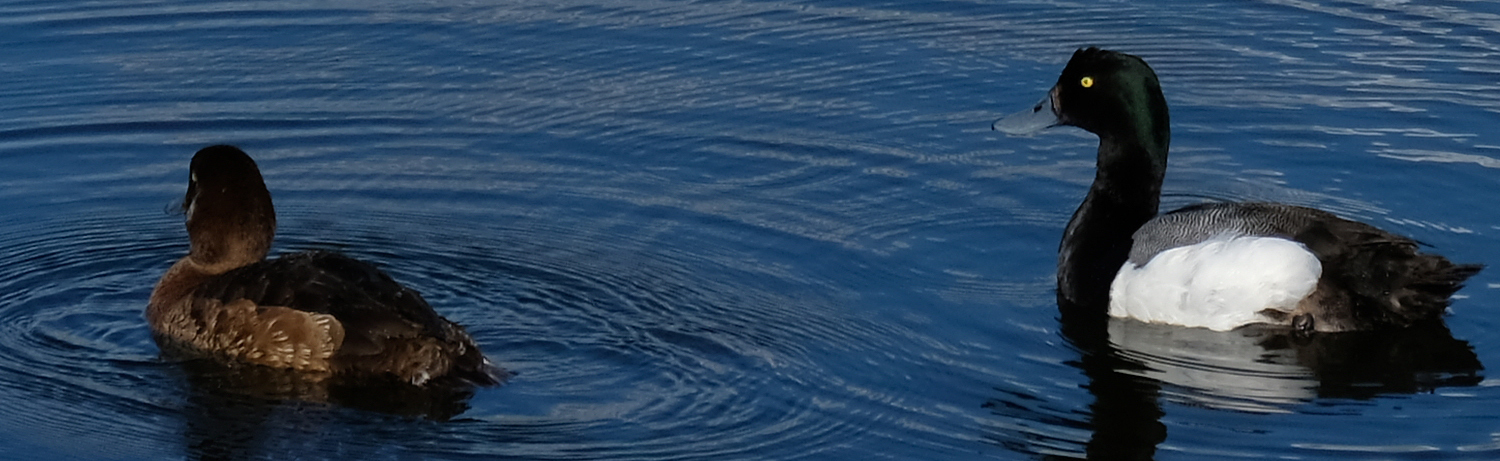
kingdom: Animalia
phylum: Chordata
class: Aves
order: Anseriformes
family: Anatidae
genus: Aythya
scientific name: Aythya marila
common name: Greater scaup
